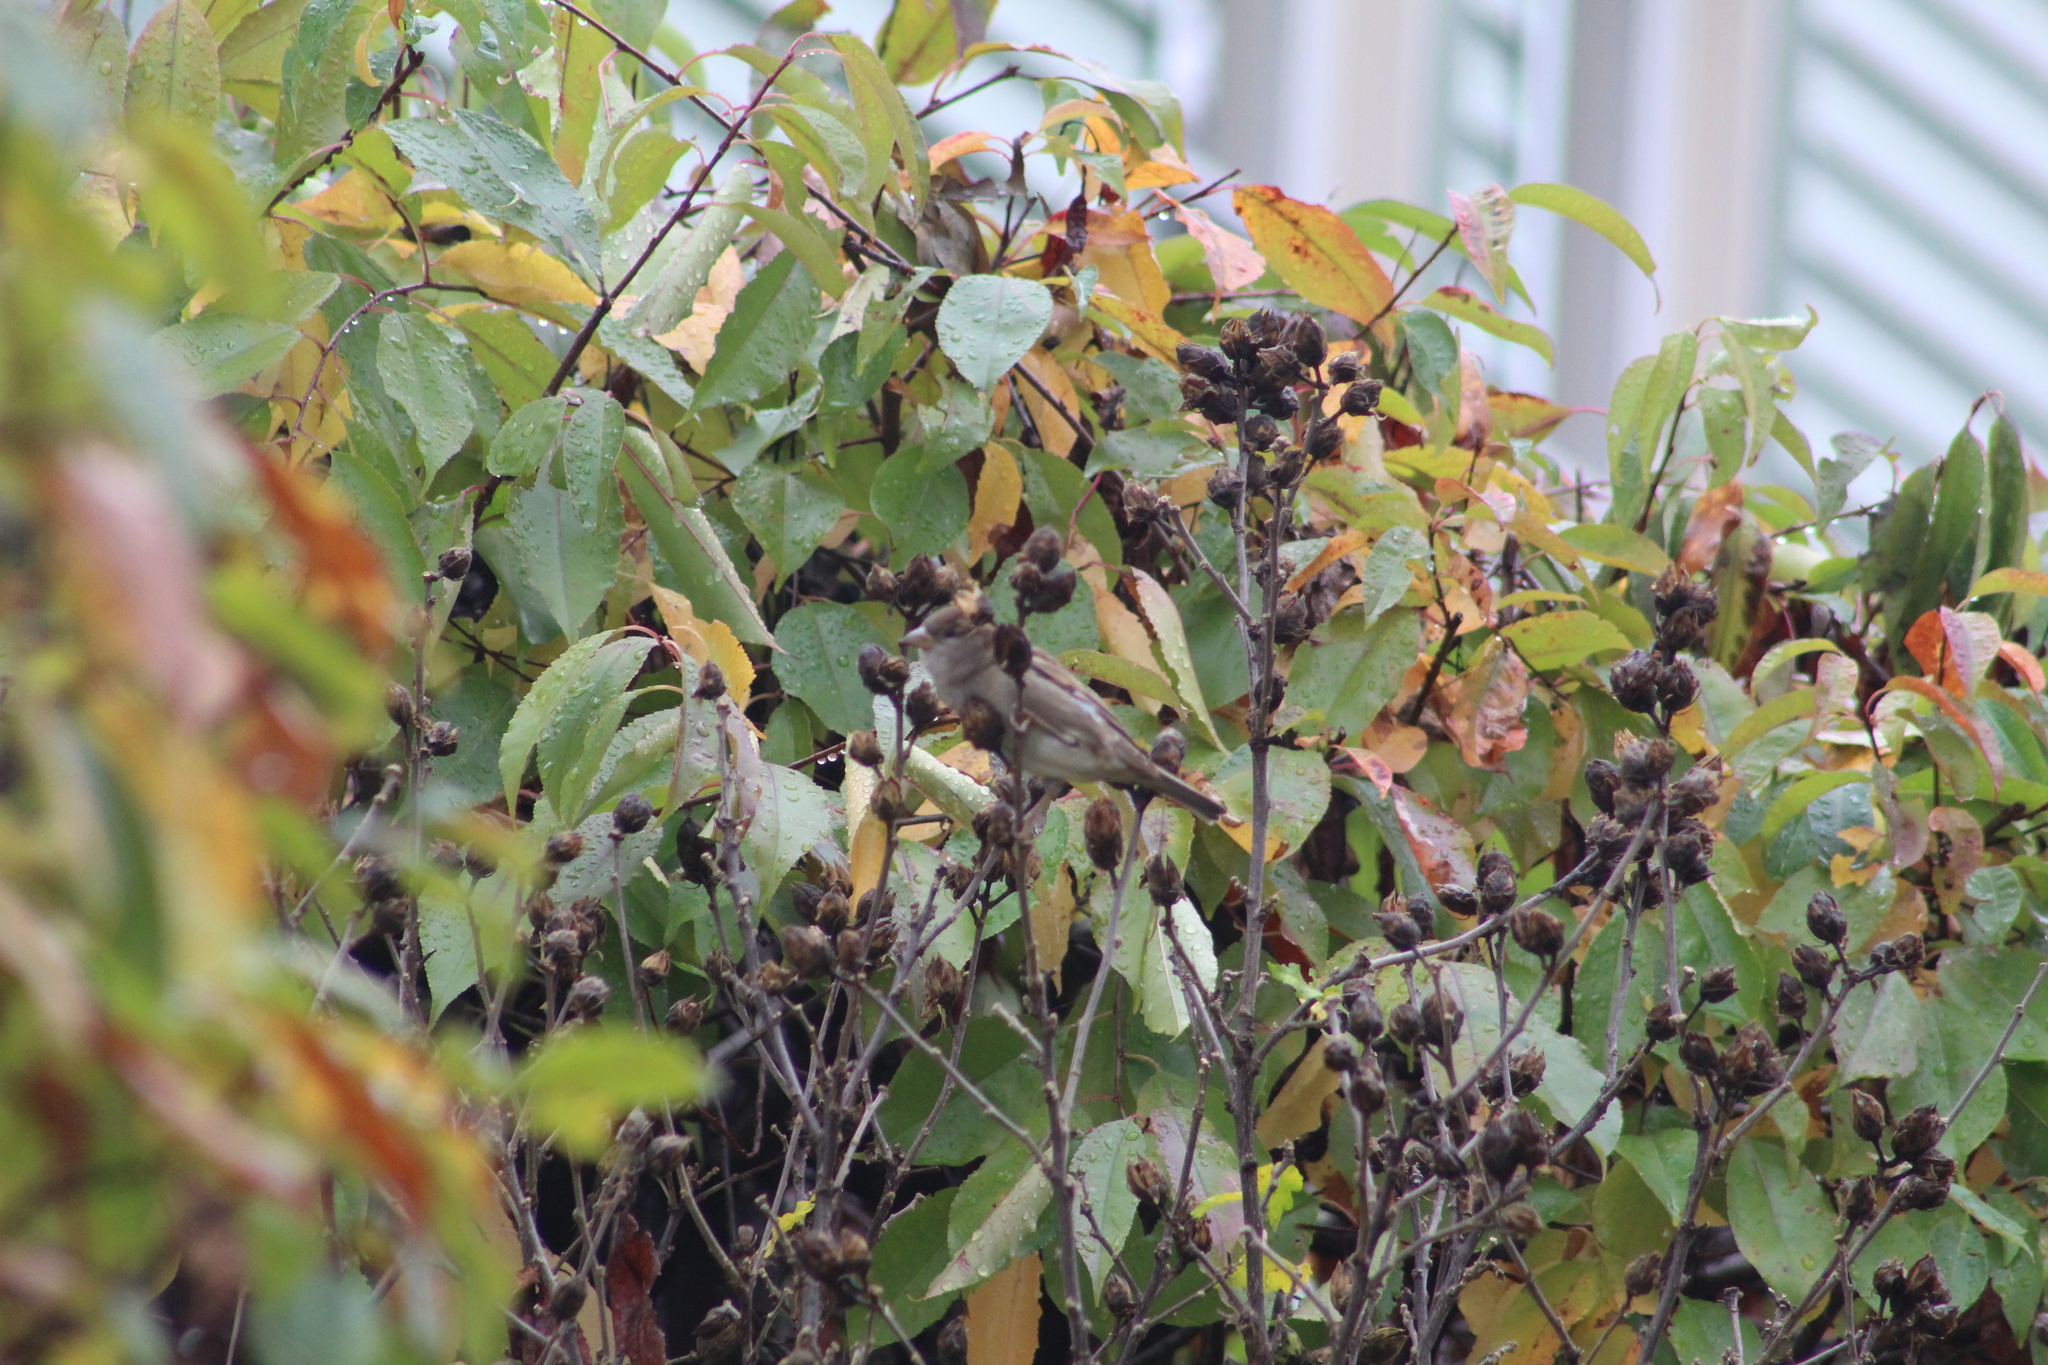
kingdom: Animalia
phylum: Chordata
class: Aves
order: Passeriformes
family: Passeridae
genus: Passer
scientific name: Passer domesticus
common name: House sparrow
